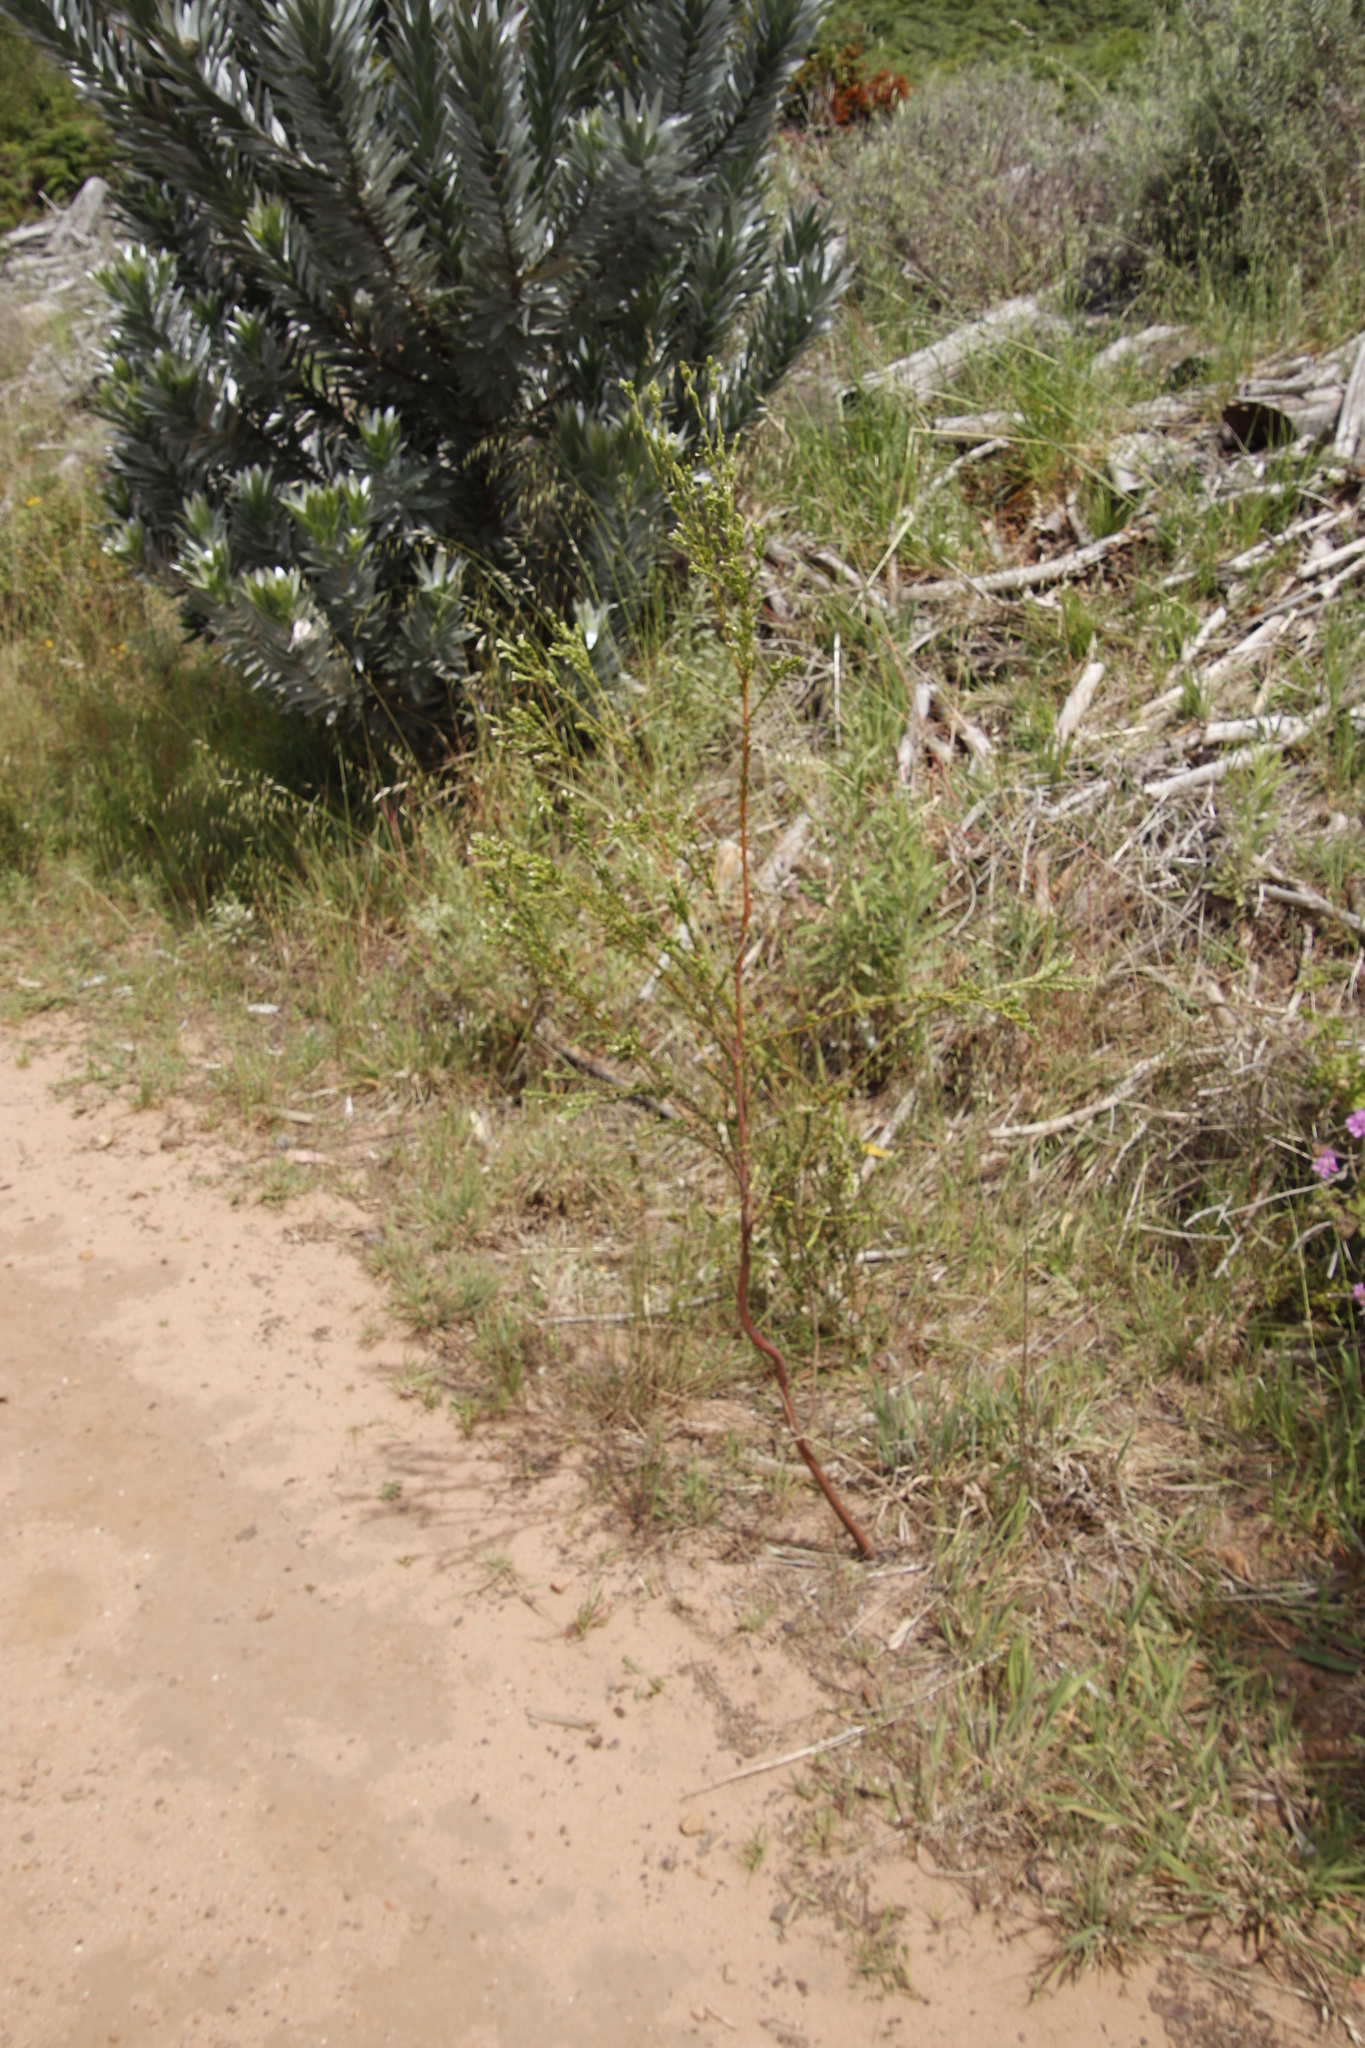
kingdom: Plantae
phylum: Tracheophyta
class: Magnoliopsida
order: Malvales
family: Thymelaeaceae
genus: Gnidia
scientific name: Gnidia sericea
